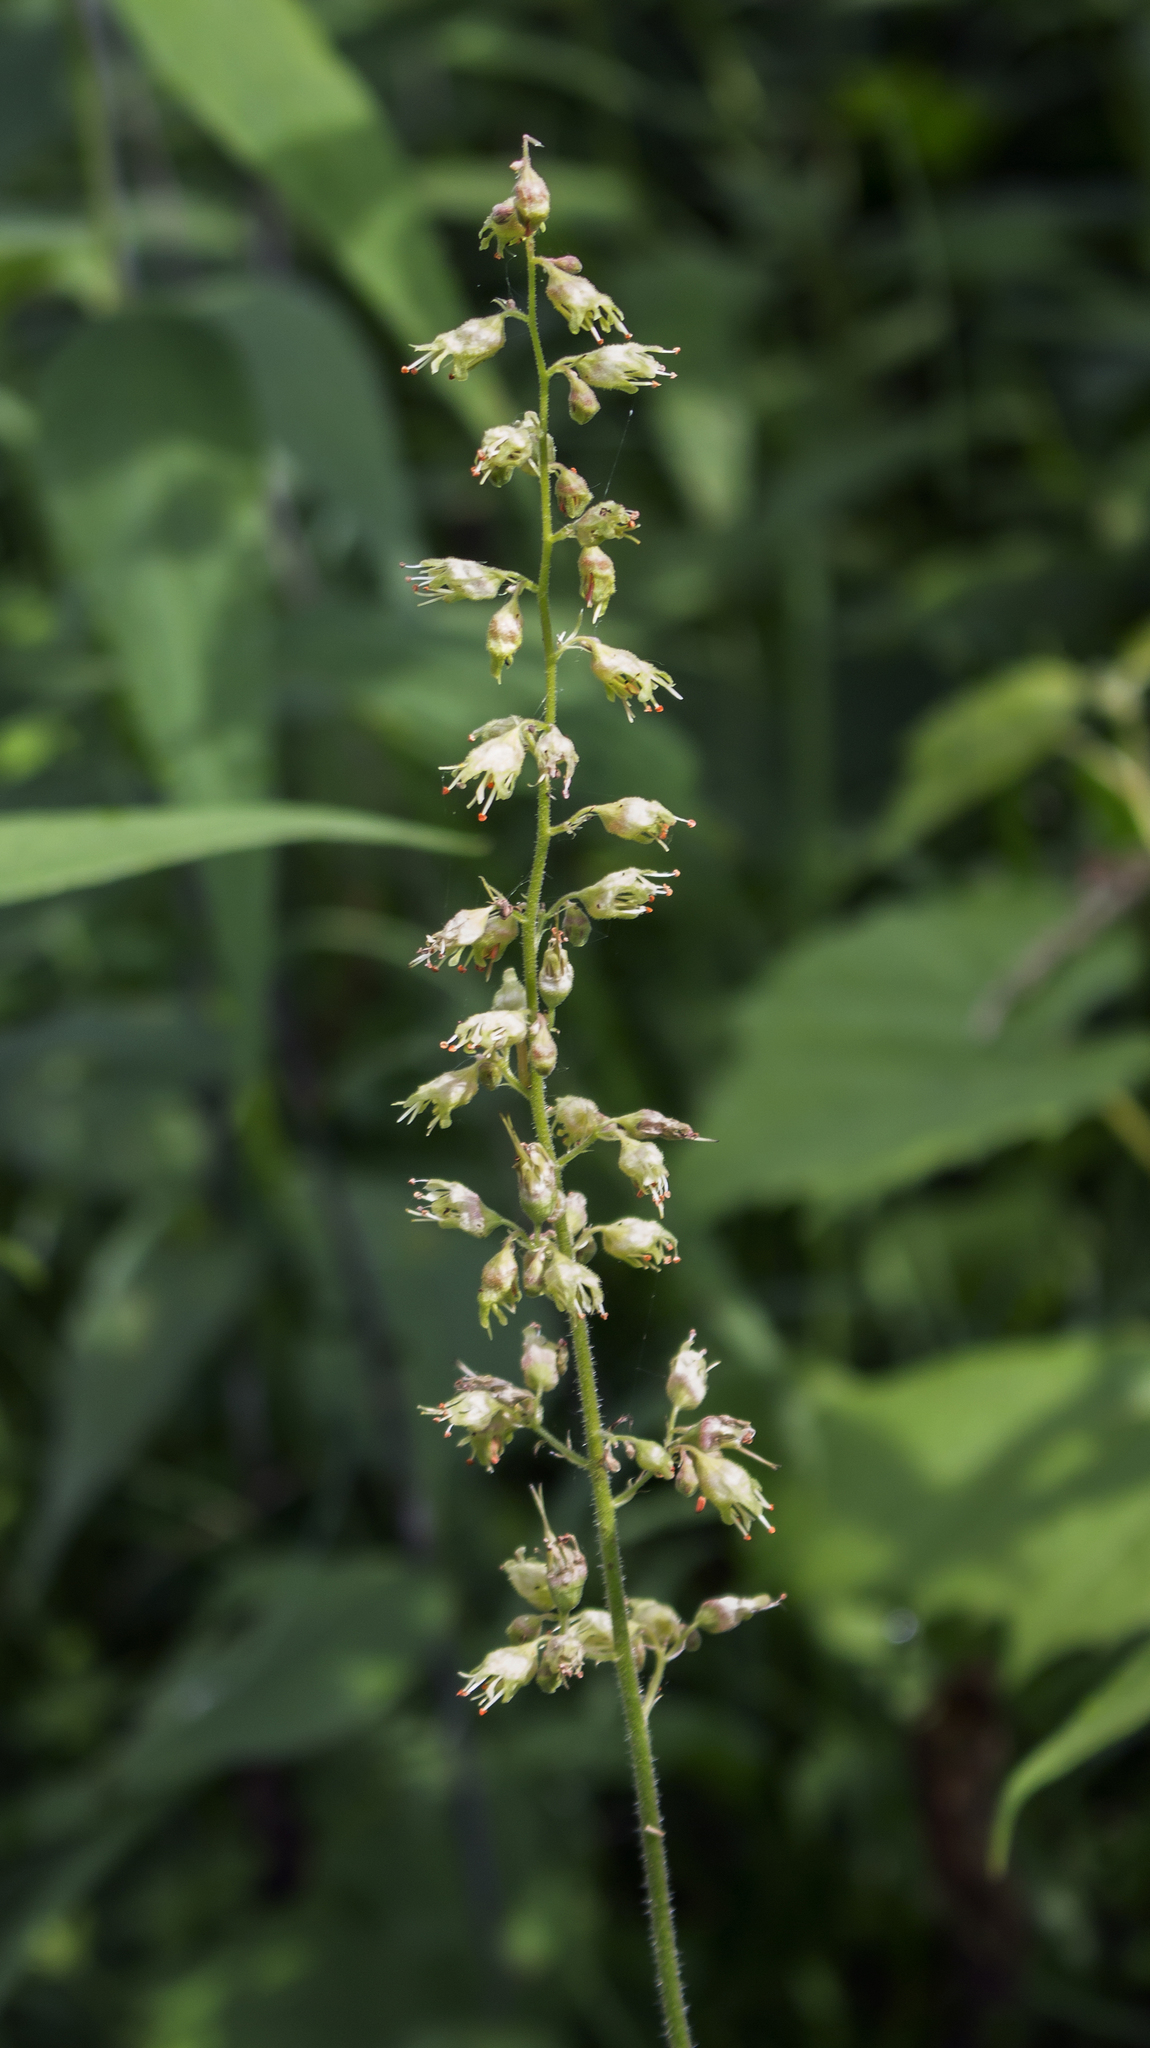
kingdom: Plantae
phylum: Tracheophyta
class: Magnoliopsida
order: Saxifragales
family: Saxifragaceae
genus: Heuchera
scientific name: Heuchera richardsonii
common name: Richardson's alumroot
